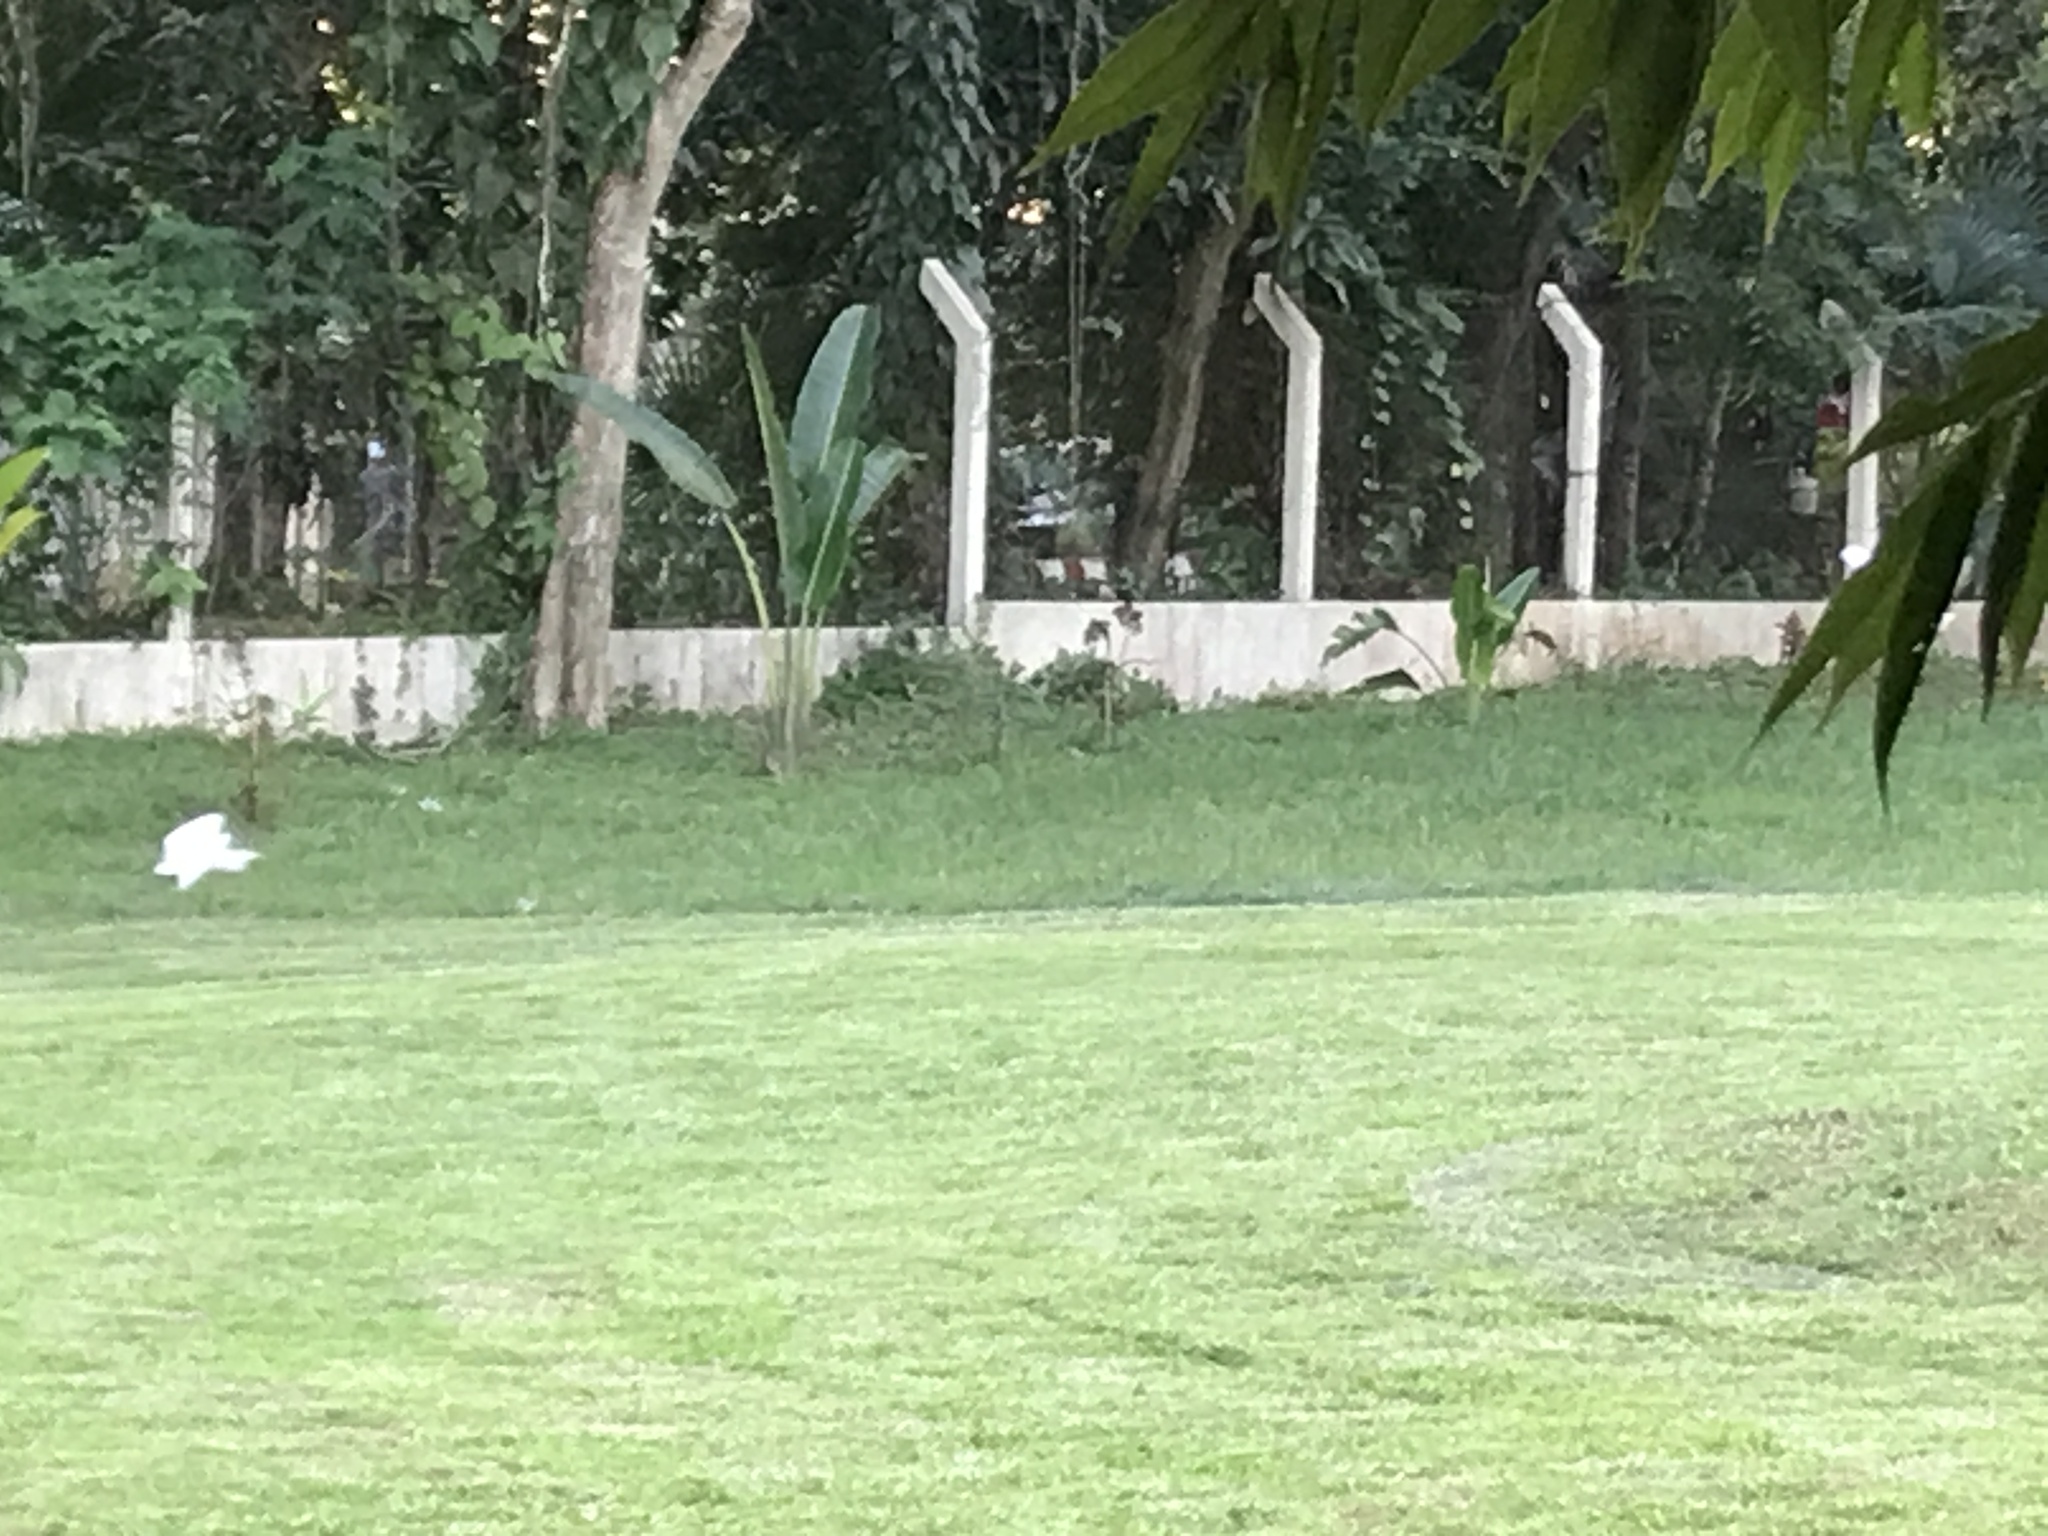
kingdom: Animalia
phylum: Chordata
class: Aves
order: Pelecaniformes
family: Ardeidae
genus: Bubulcus
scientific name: Bubulcus coromandus
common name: Eastern cattle egret
